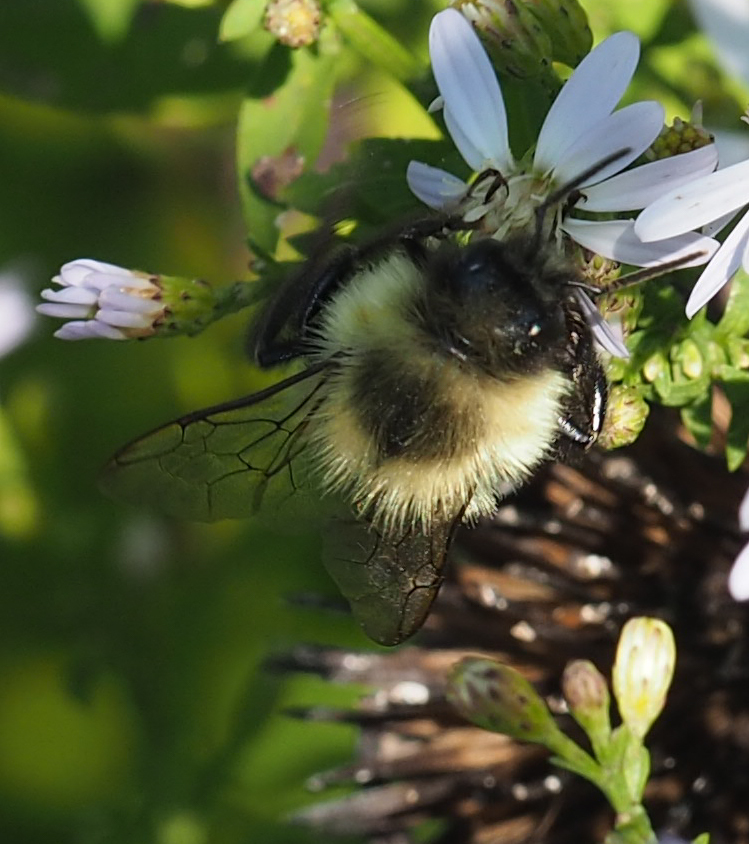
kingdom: Animalia
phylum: Arthropoda
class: Insecta
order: Hymenoptera
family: Apidae
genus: Bombus
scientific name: Bombus impatiens
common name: Common eastern bumble bee
